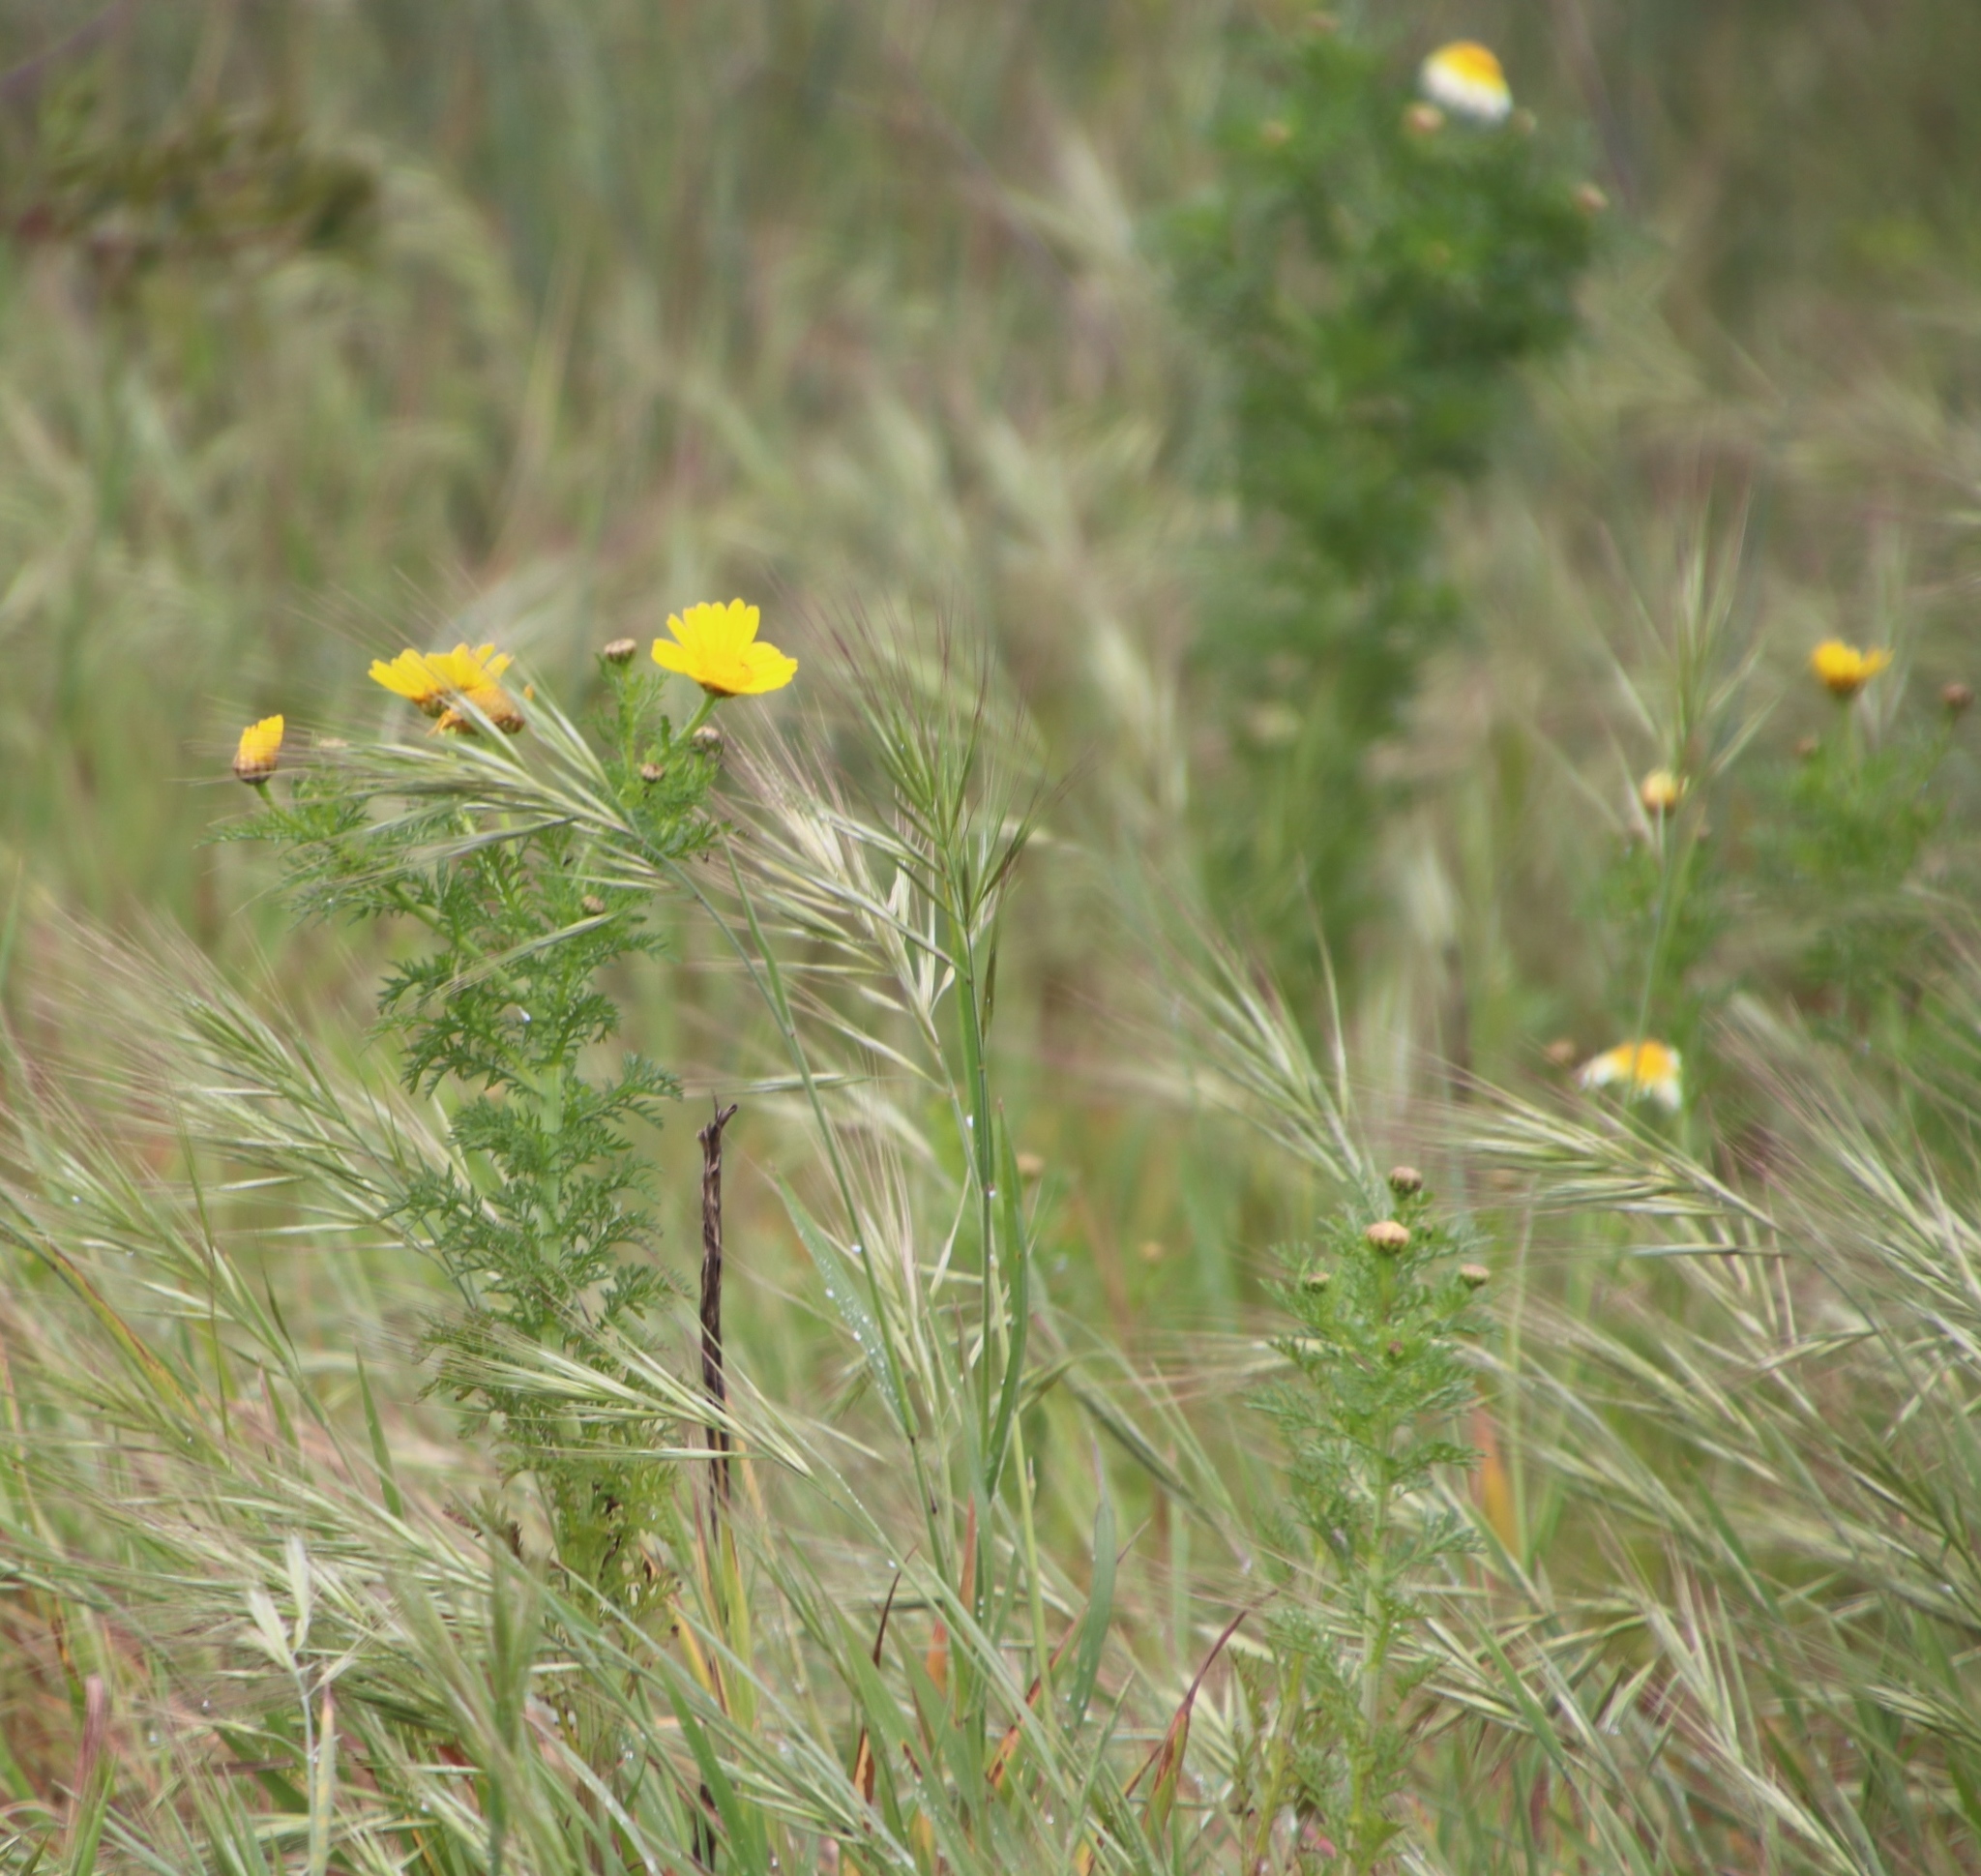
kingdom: Plantae
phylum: Tracheophyta
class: Magnoliopsida
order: Asterales
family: Asteraceae
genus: Glebionis
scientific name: Glebionis coronaria
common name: Crowndaisy
